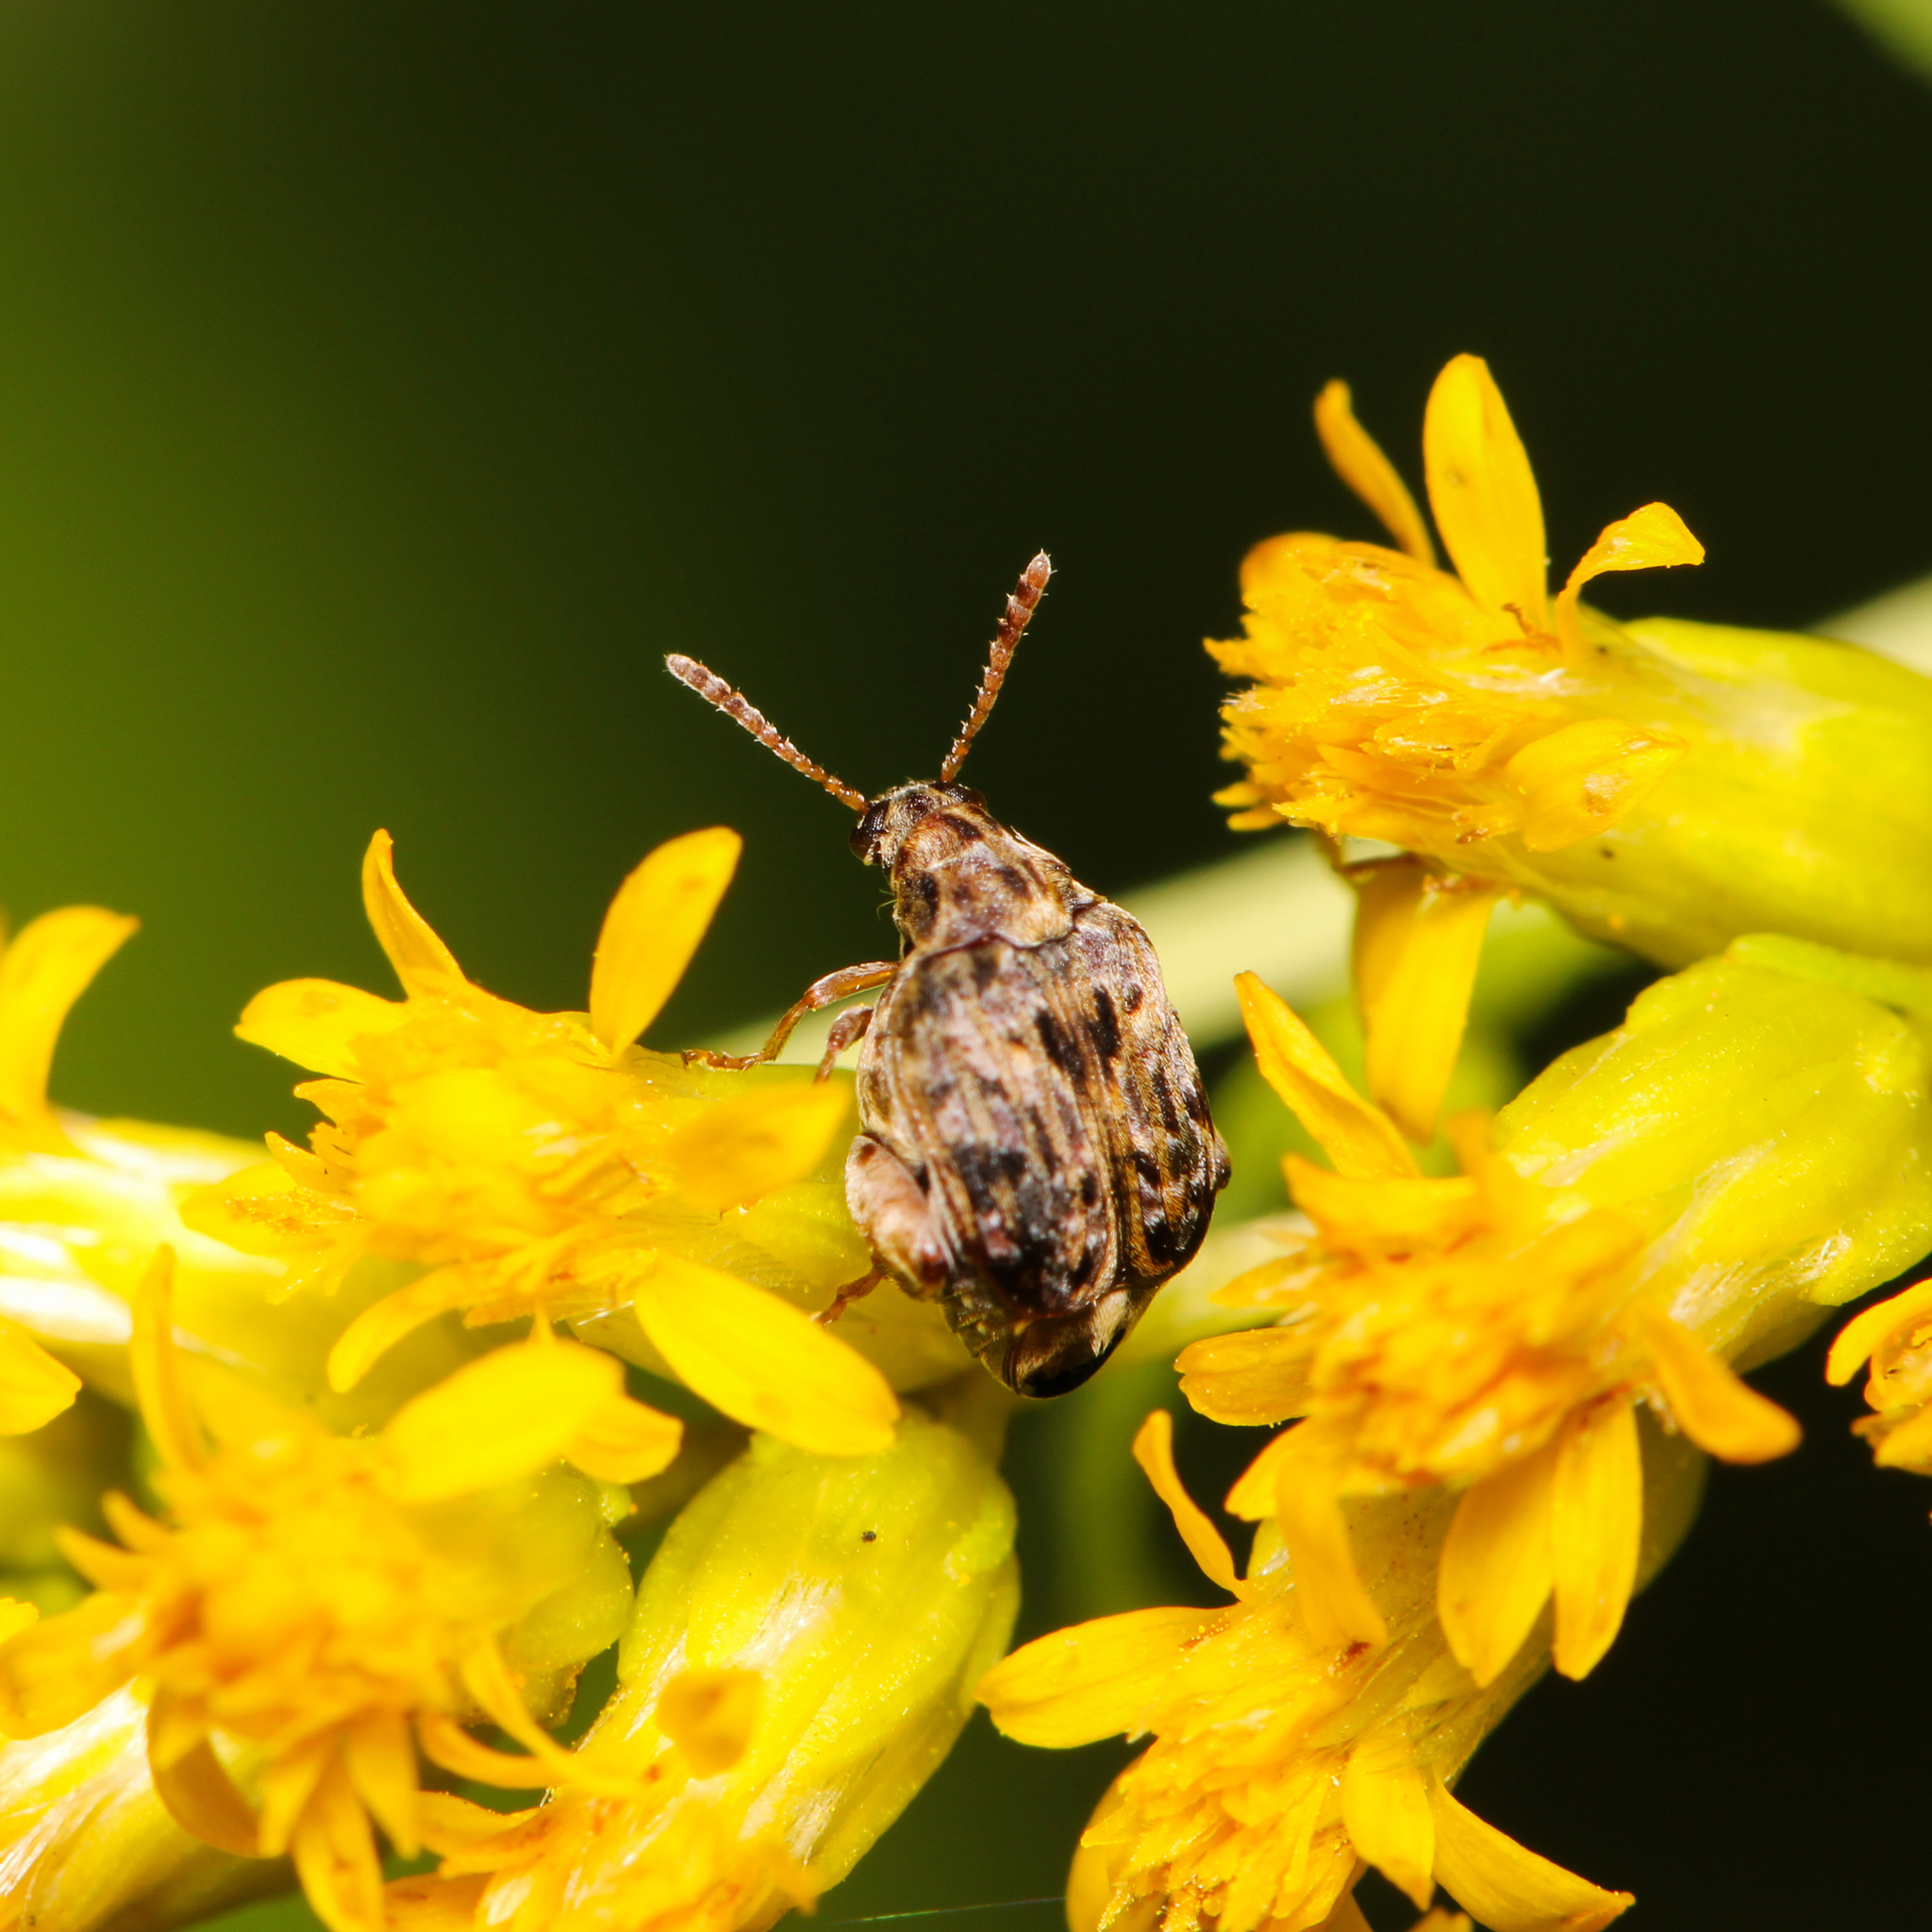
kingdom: Animalia
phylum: Arthropoda
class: Insecta
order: Coleoptera
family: Chrysomelidae
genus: Gibbobruchus
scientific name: Gibbobruchus mimus
